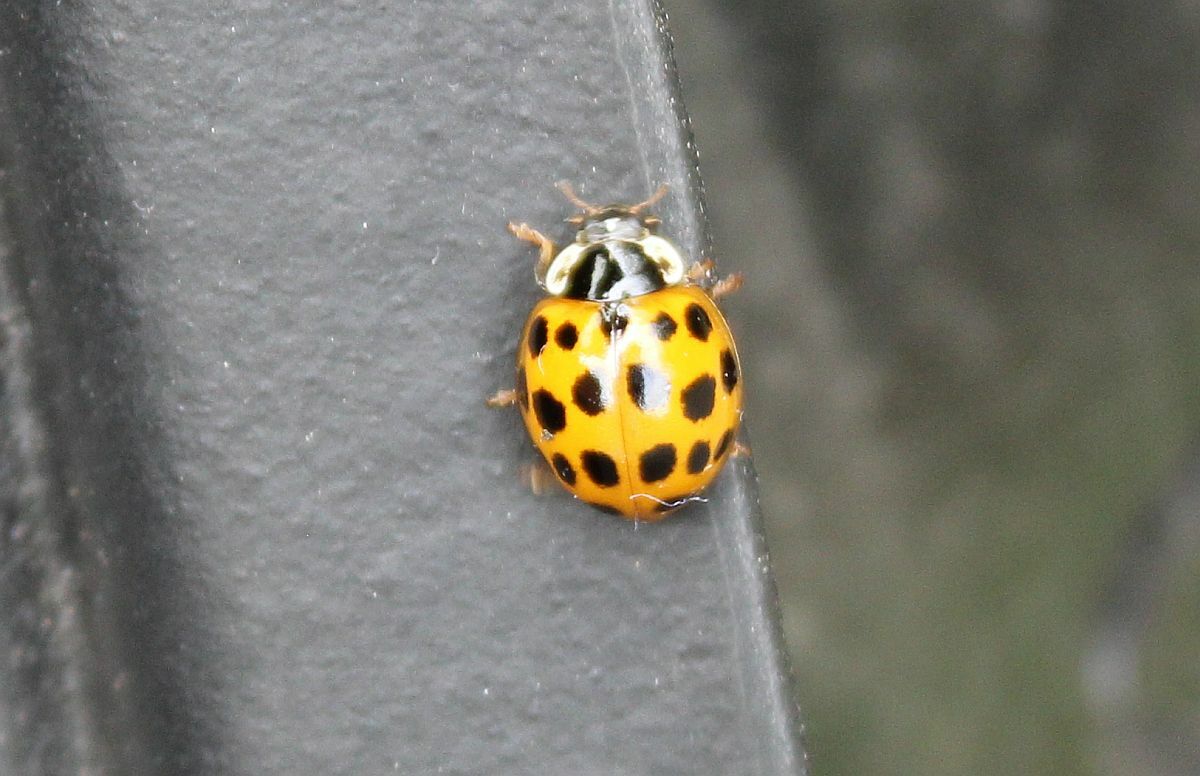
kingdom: Animalia
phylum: Arthropoda
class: Insecta
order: Coleoptera
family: Coccinellidae
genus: Harmonia
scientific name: Harmonia axyridis
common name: Harlequin ladybird
